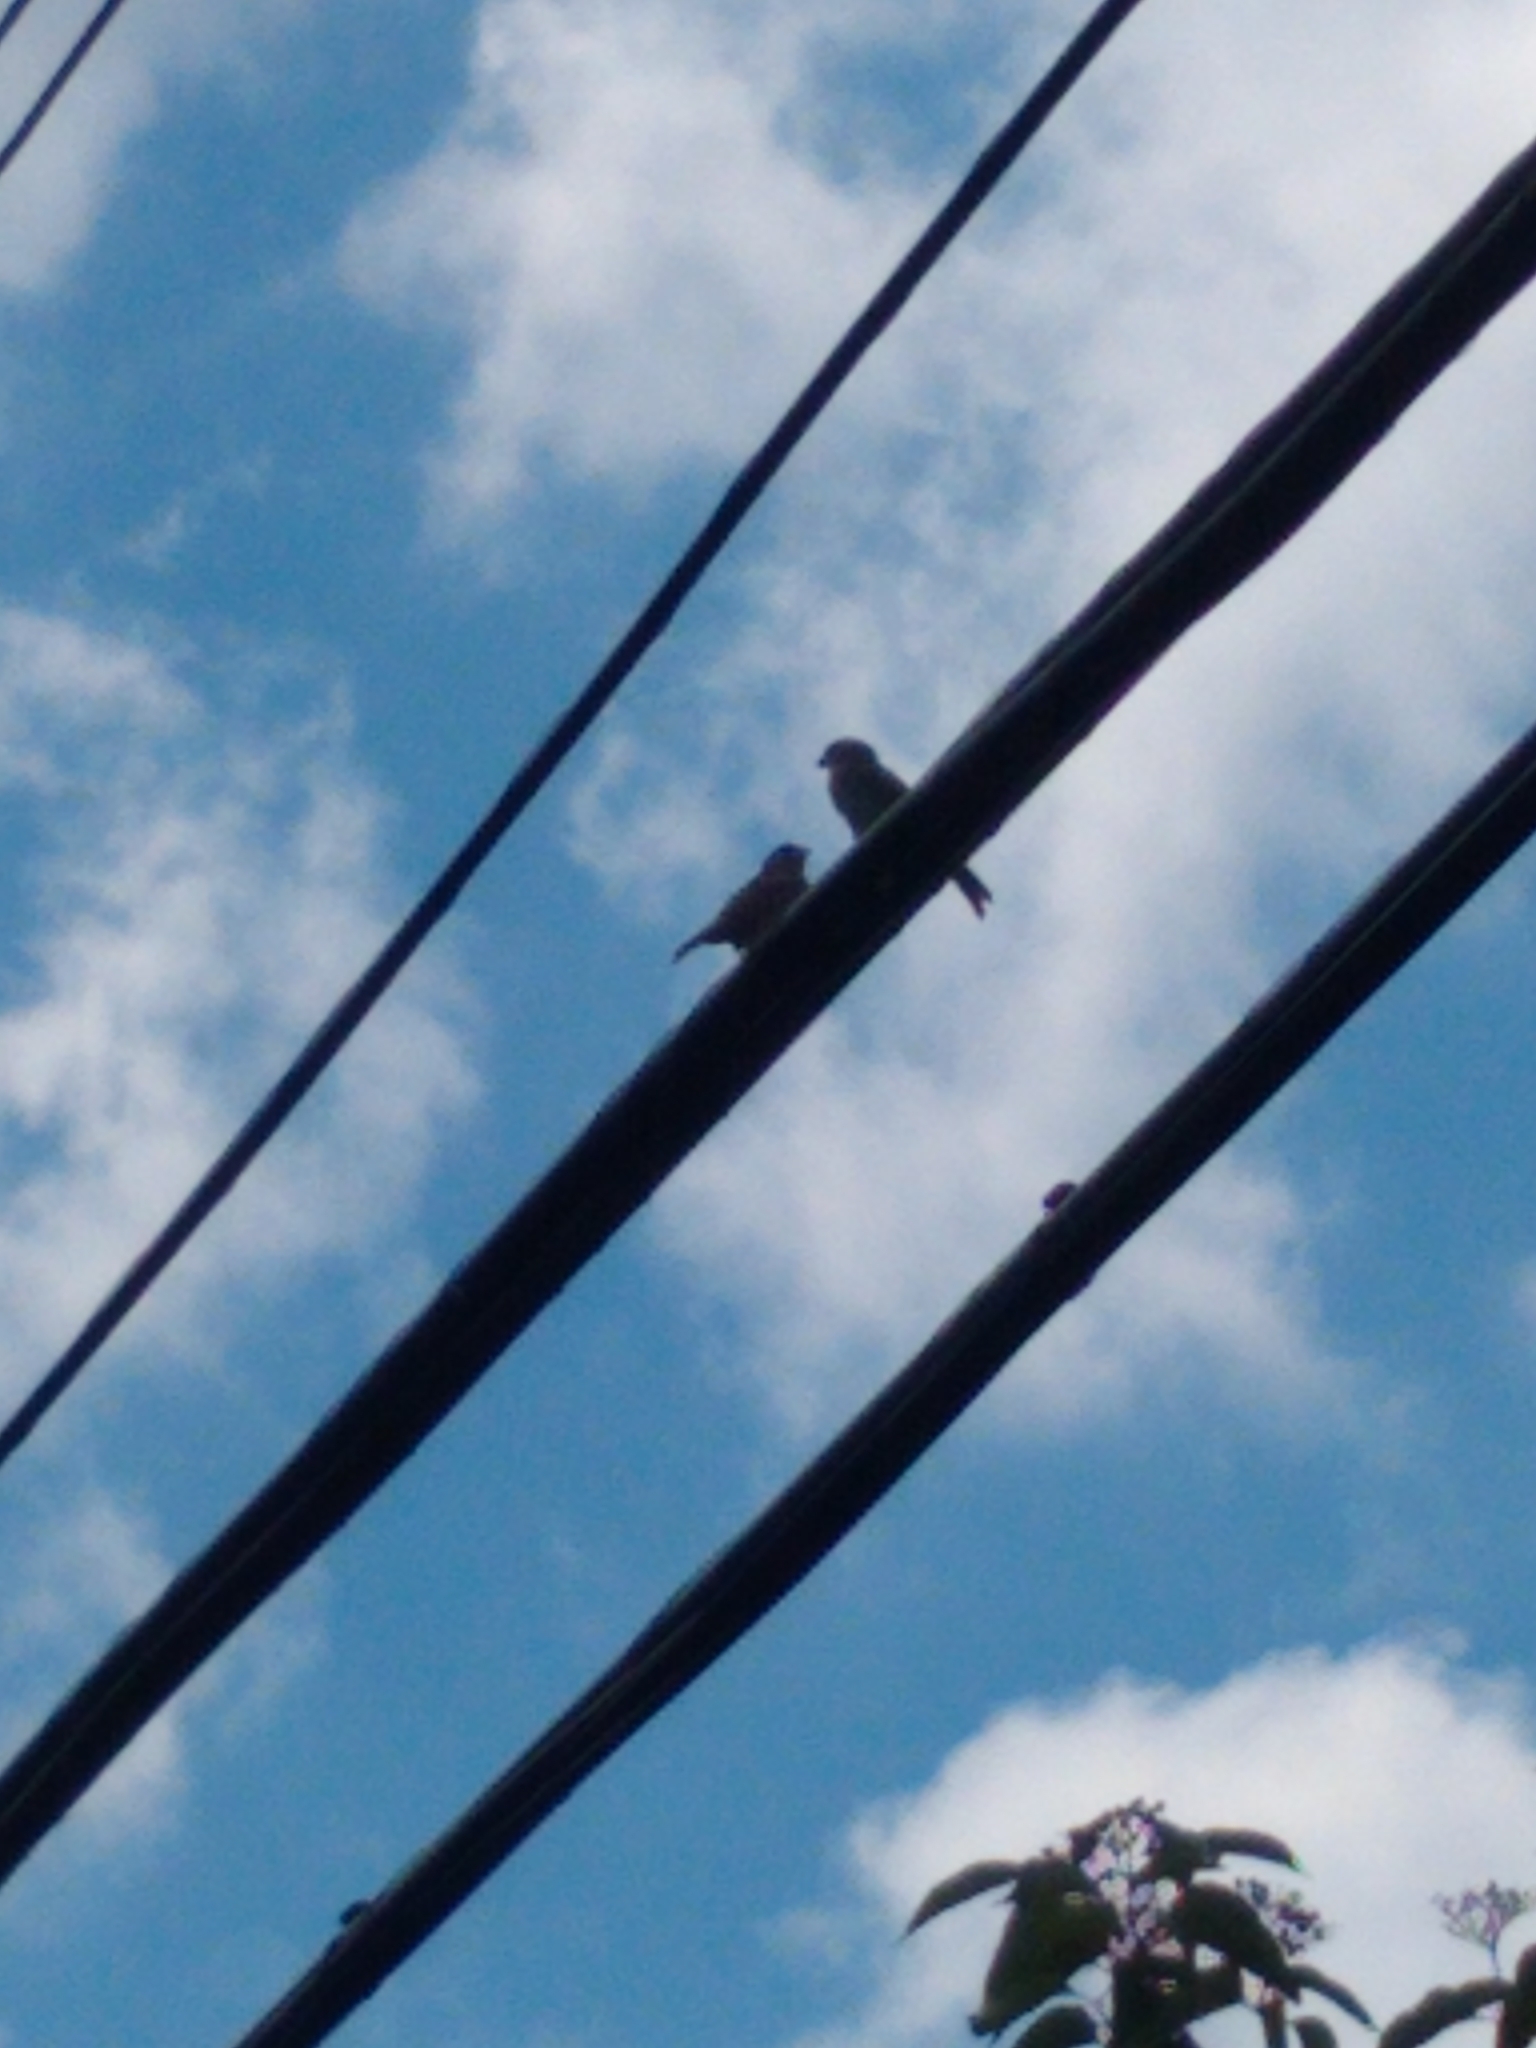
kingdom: Animalia
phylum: Chordata
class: Aves
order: Passeriformes
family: Passeridae
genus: Passer
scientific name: Passer domesticus
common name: House sparrow
